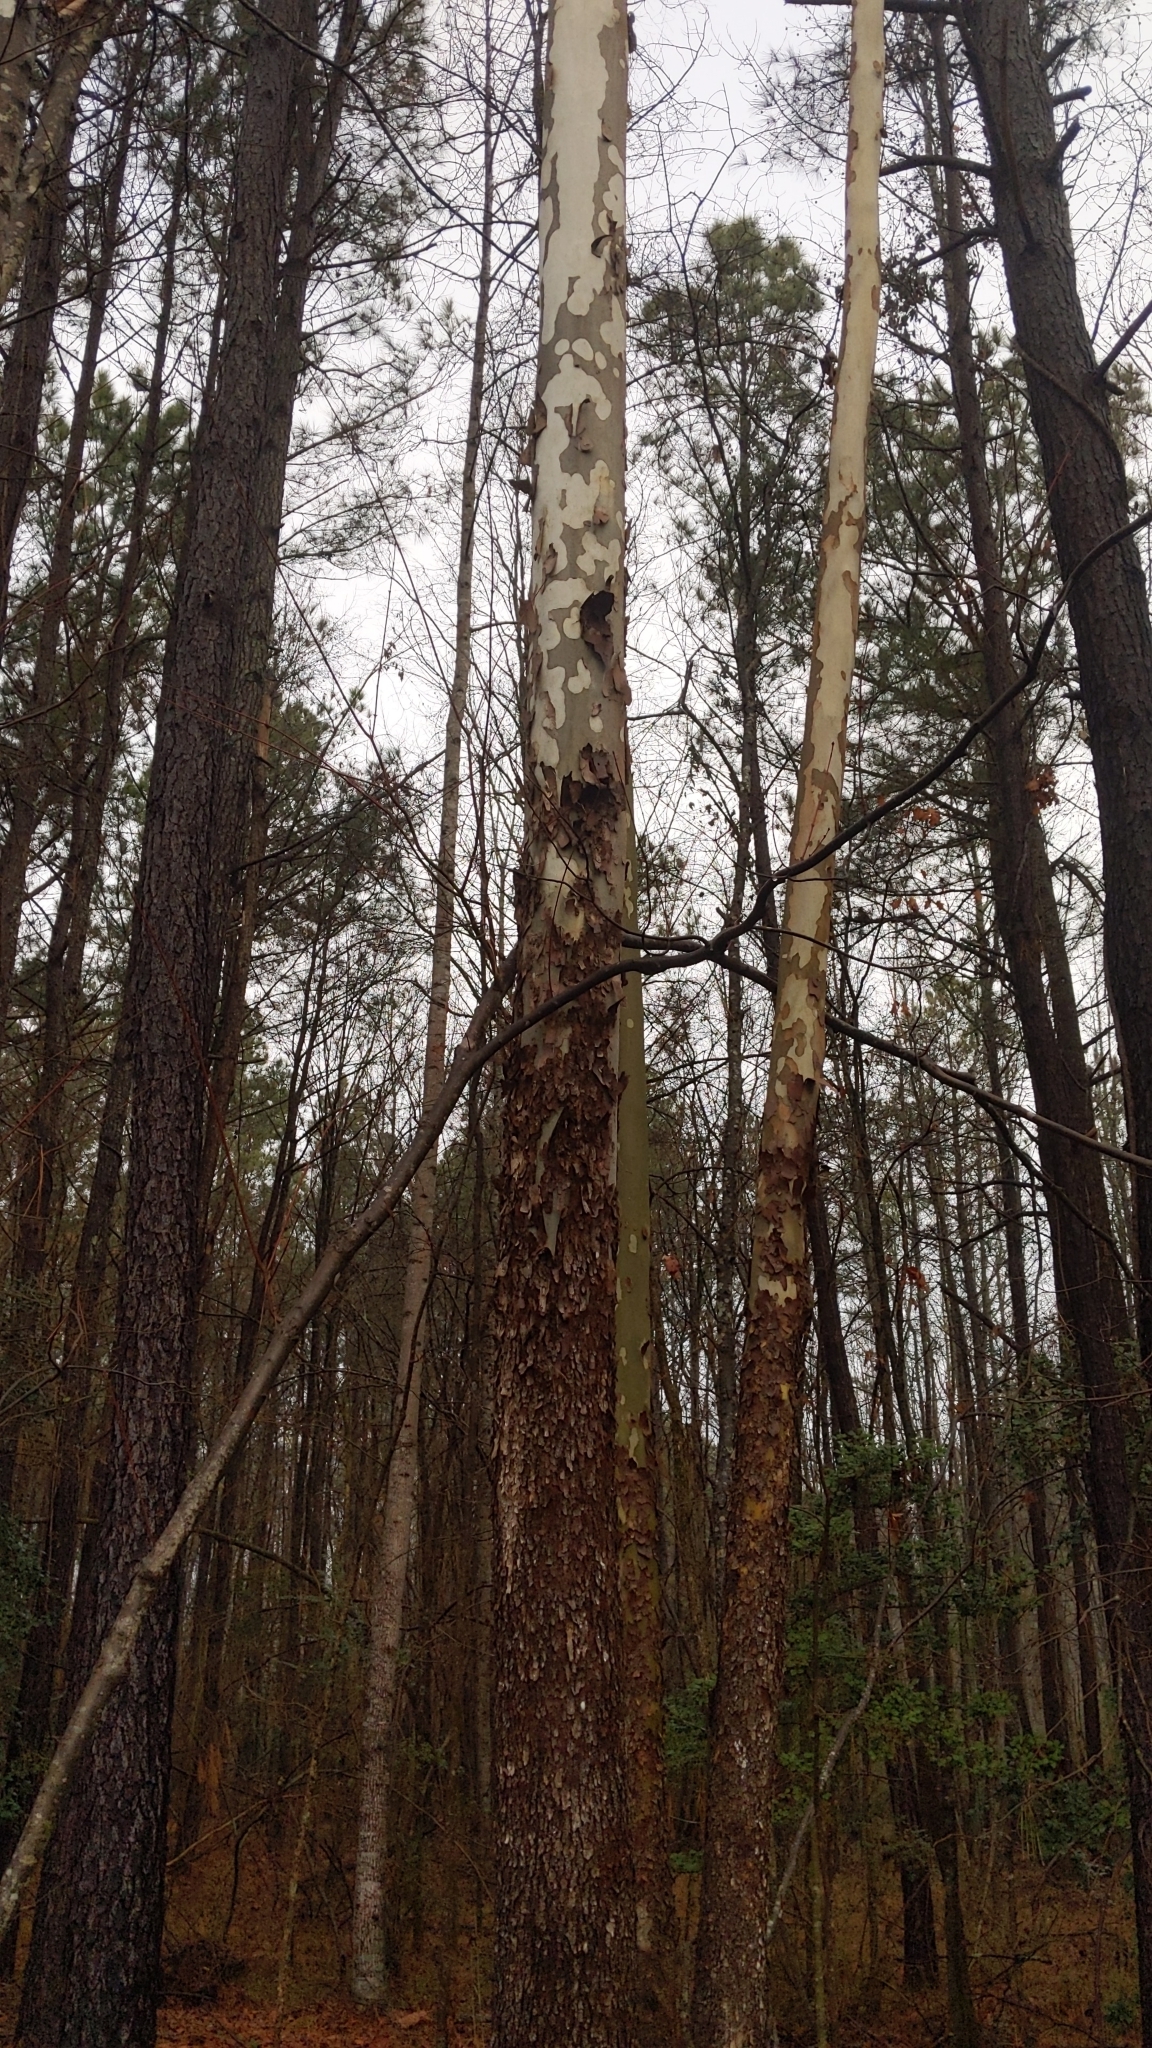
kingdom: Plantae
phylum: Tracheophyta
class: Magnoliopsida
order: Proteales
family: Platanaceae
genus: Platanus
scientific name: Platanus occidentalis
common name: American sycamore
